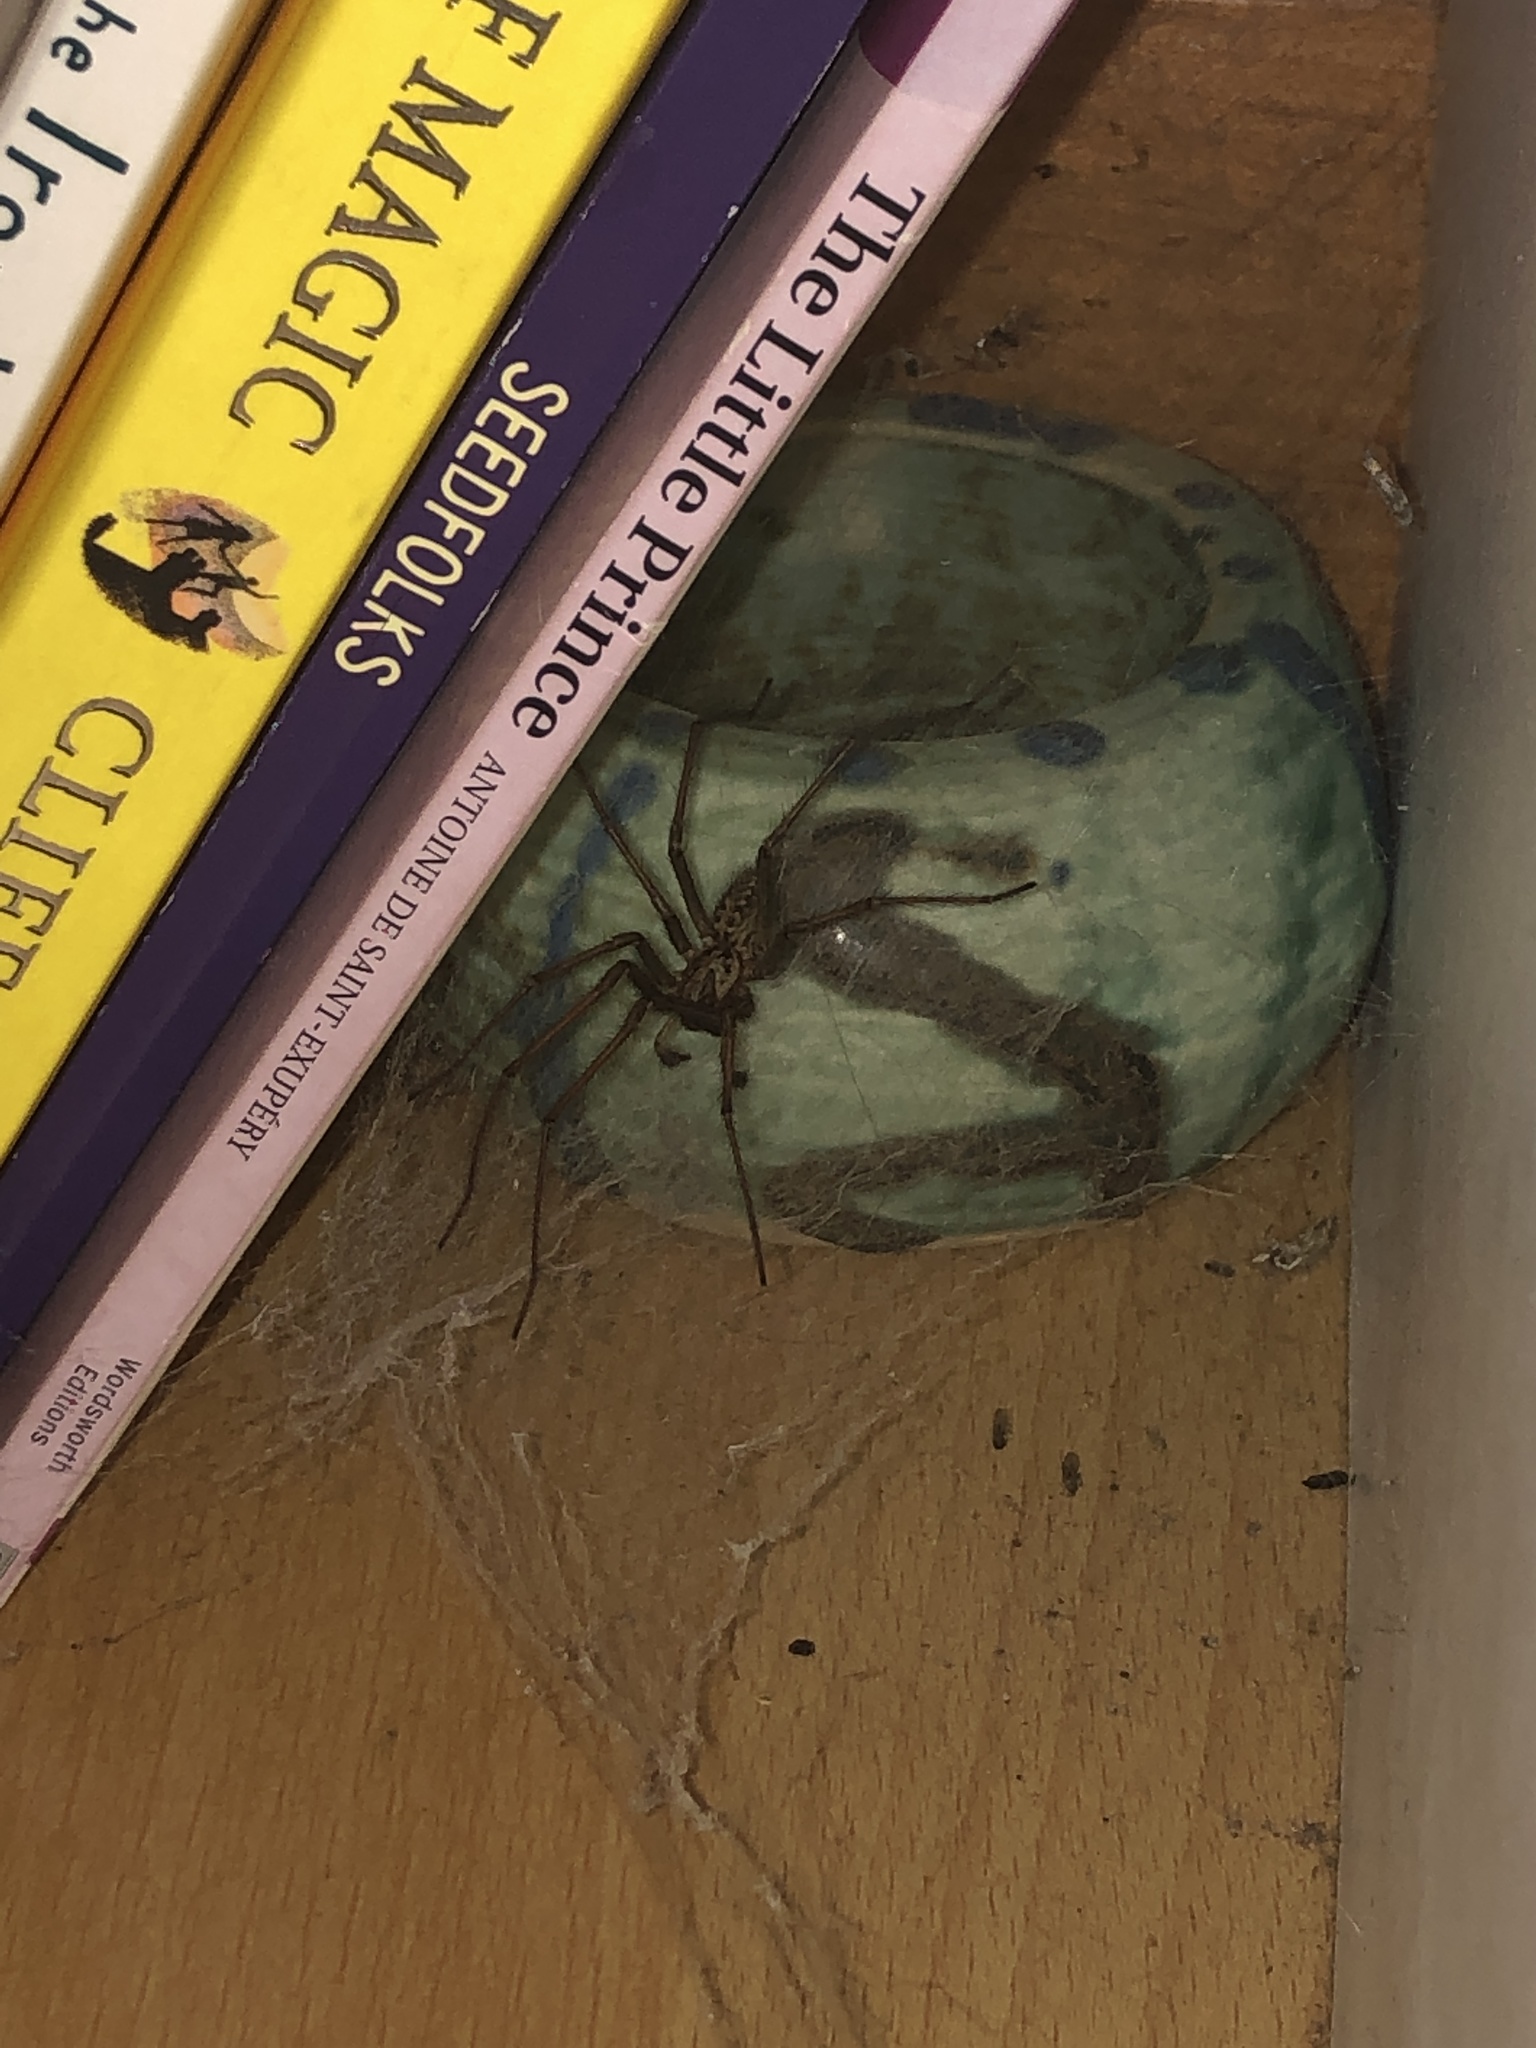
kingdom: Animalia
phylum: Arthropoda
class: Arachnida
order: Araneae
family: Agelenidae
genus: Eratigena
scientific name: Eratigena duellica
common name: Giant house spider
